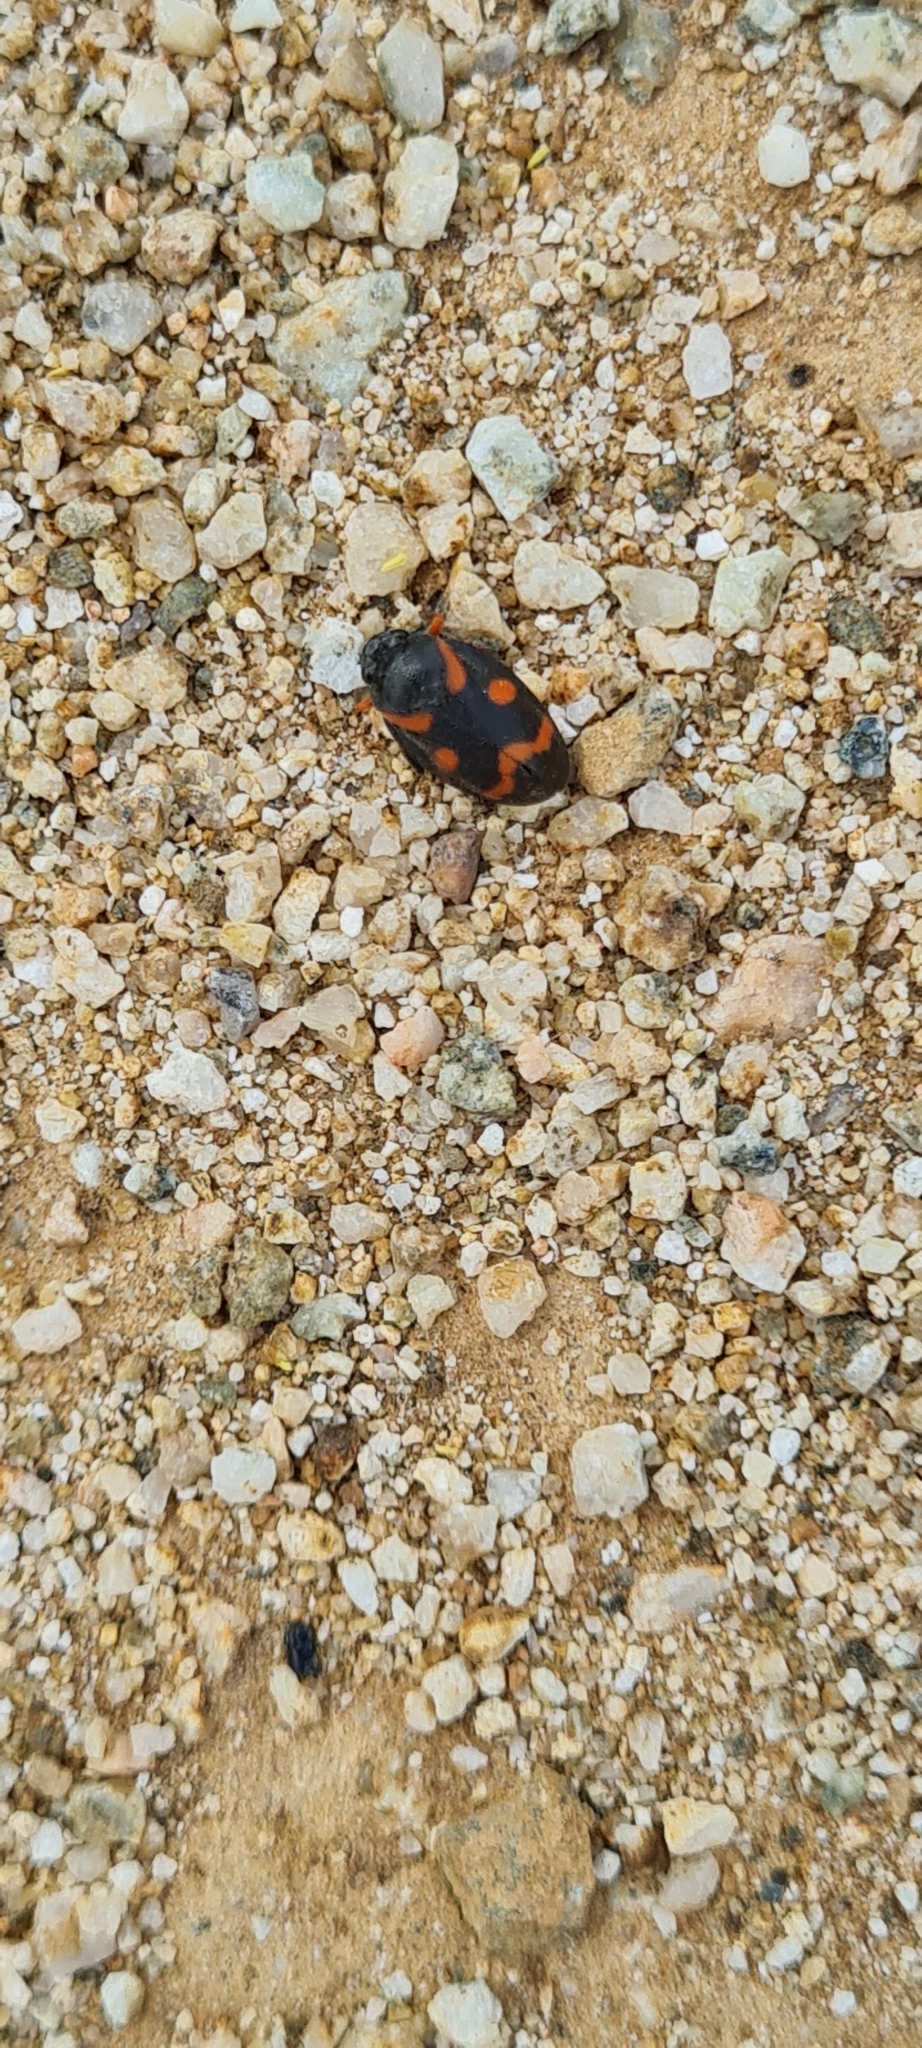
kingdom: Animalia
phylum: Arthropoda
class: Insecta
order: Hemiptera
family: Cercopidae
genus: Cercopis
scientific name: Cercopis intermedia
